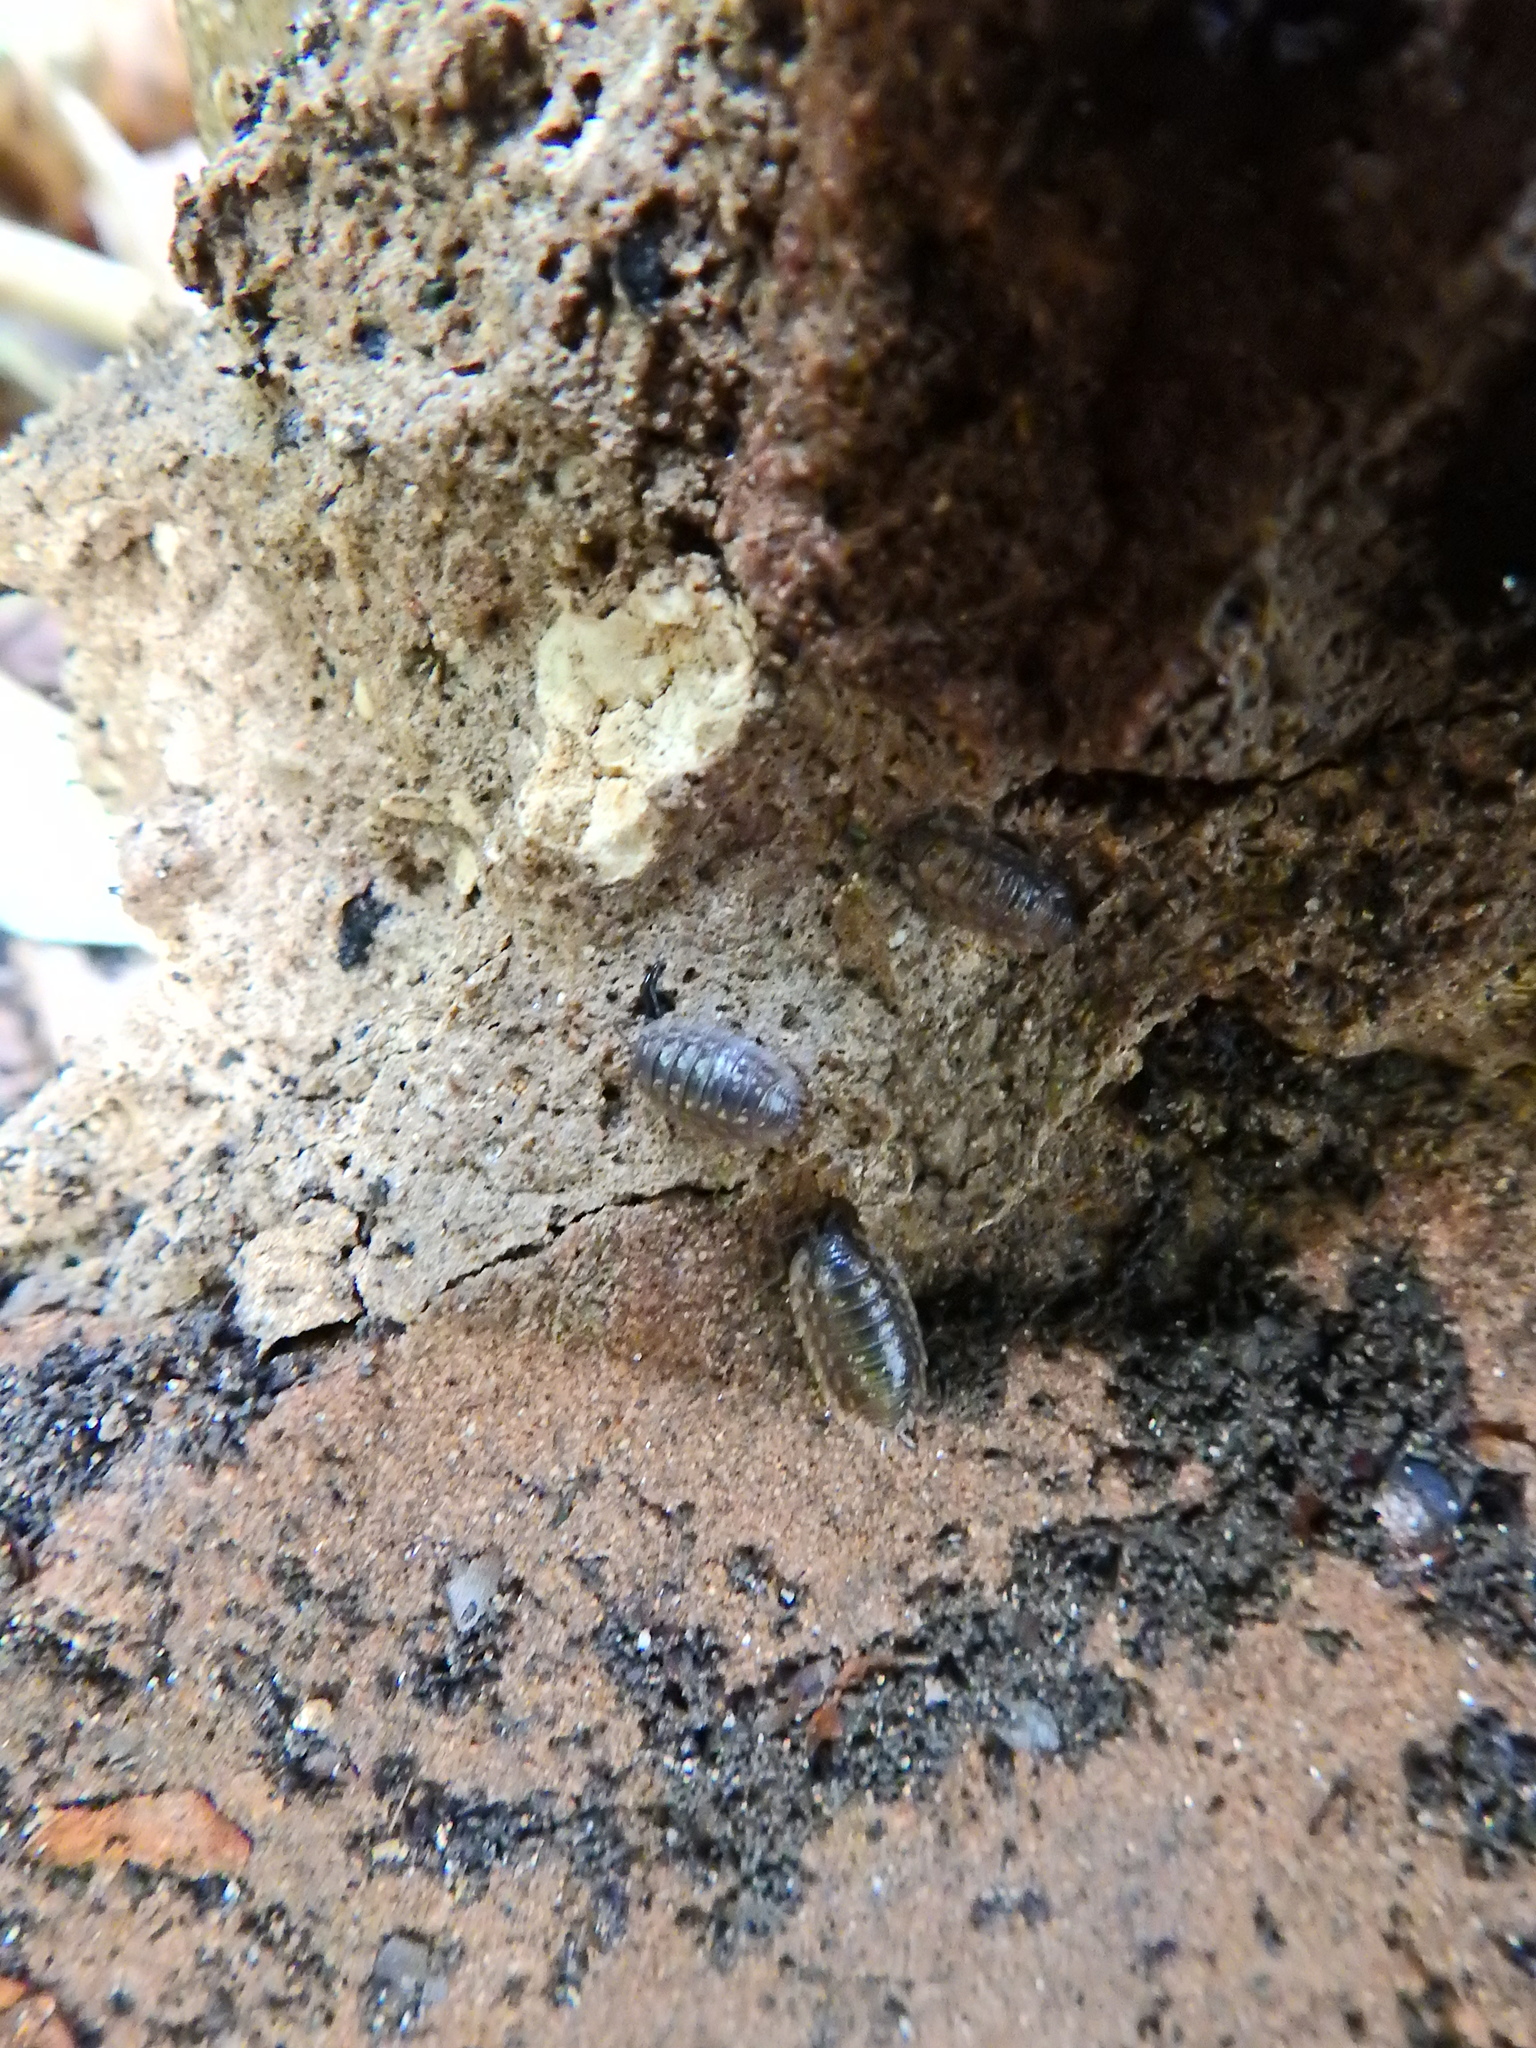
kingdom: Animalia
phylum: Arthropoda
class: Malacostraca
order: Isopoda
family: Oniscidae
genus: Oniscus
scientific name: Oniscus asellus
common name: Common shiny woodlouse
